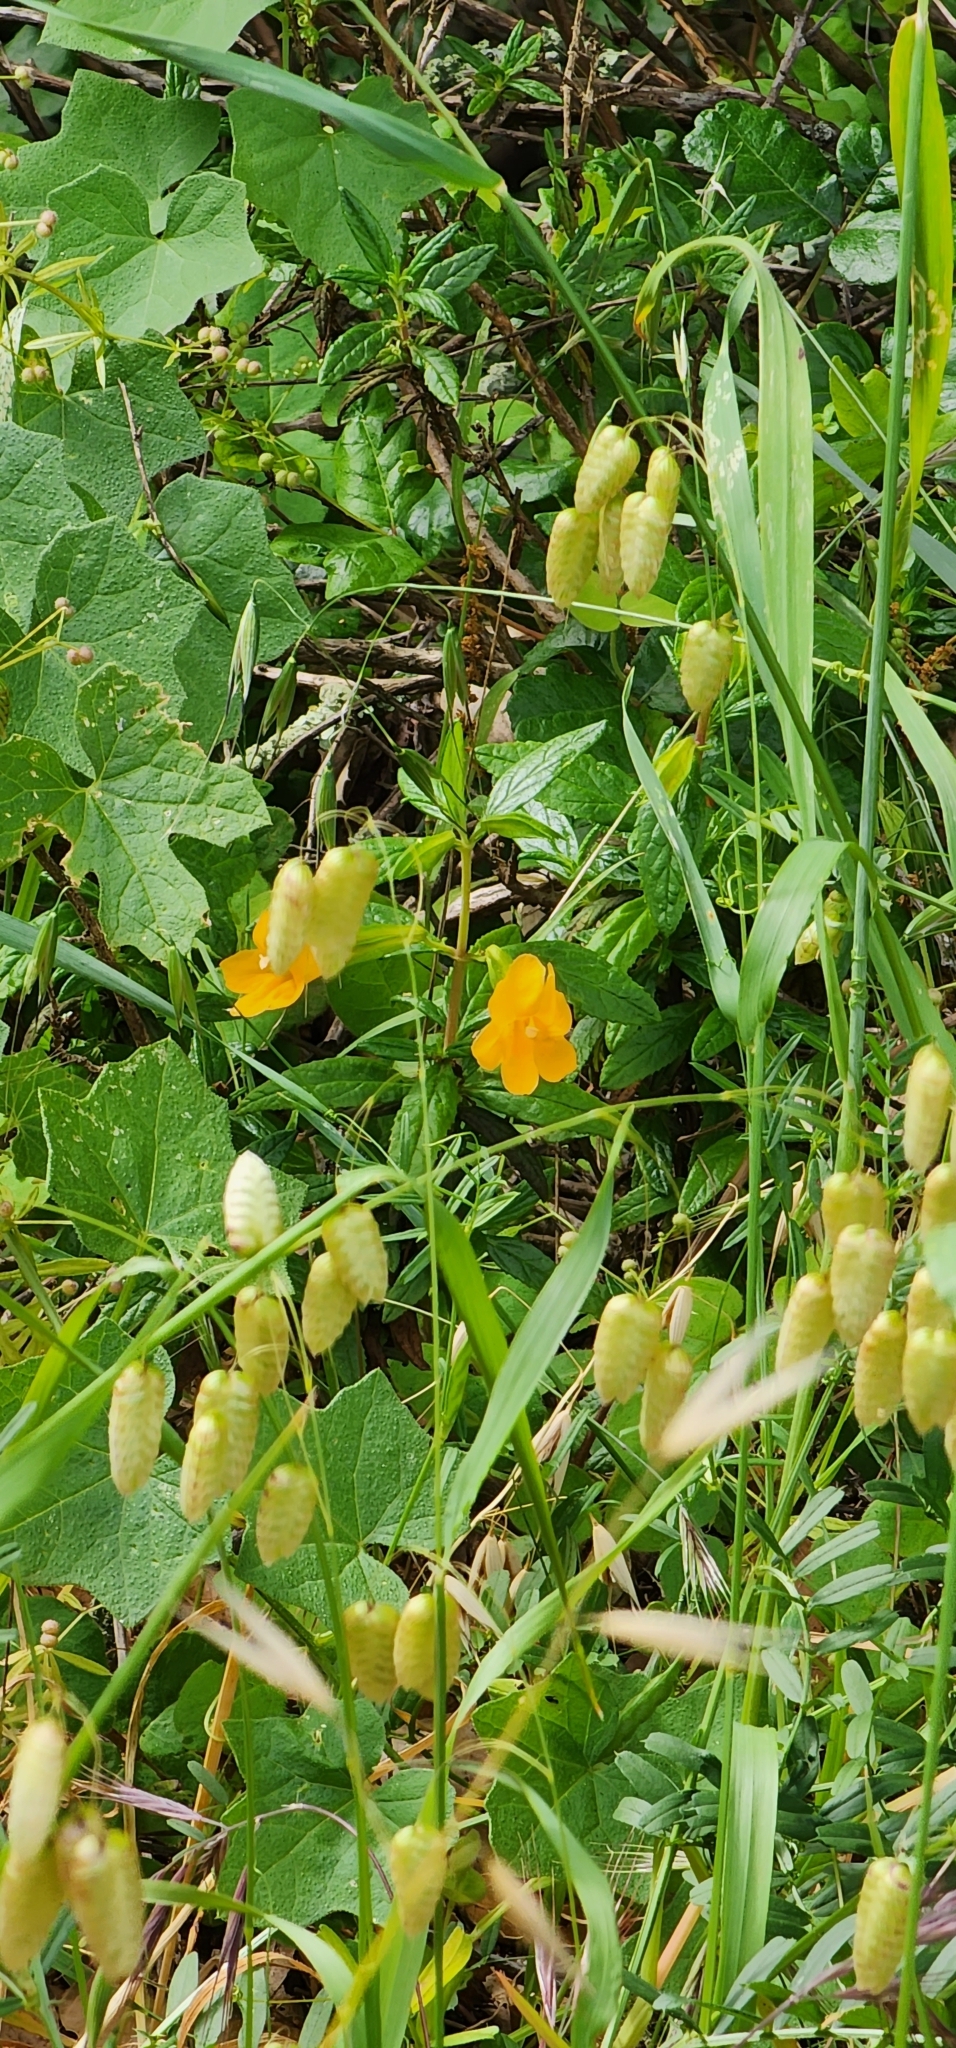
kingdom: Plantae
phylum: Tracheophyta
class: Magnoliopsida
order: Lamiales
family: Phrymaceae
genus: Diplacus
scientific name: Diplacus aurantiacus
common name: Bush monkey-flower
